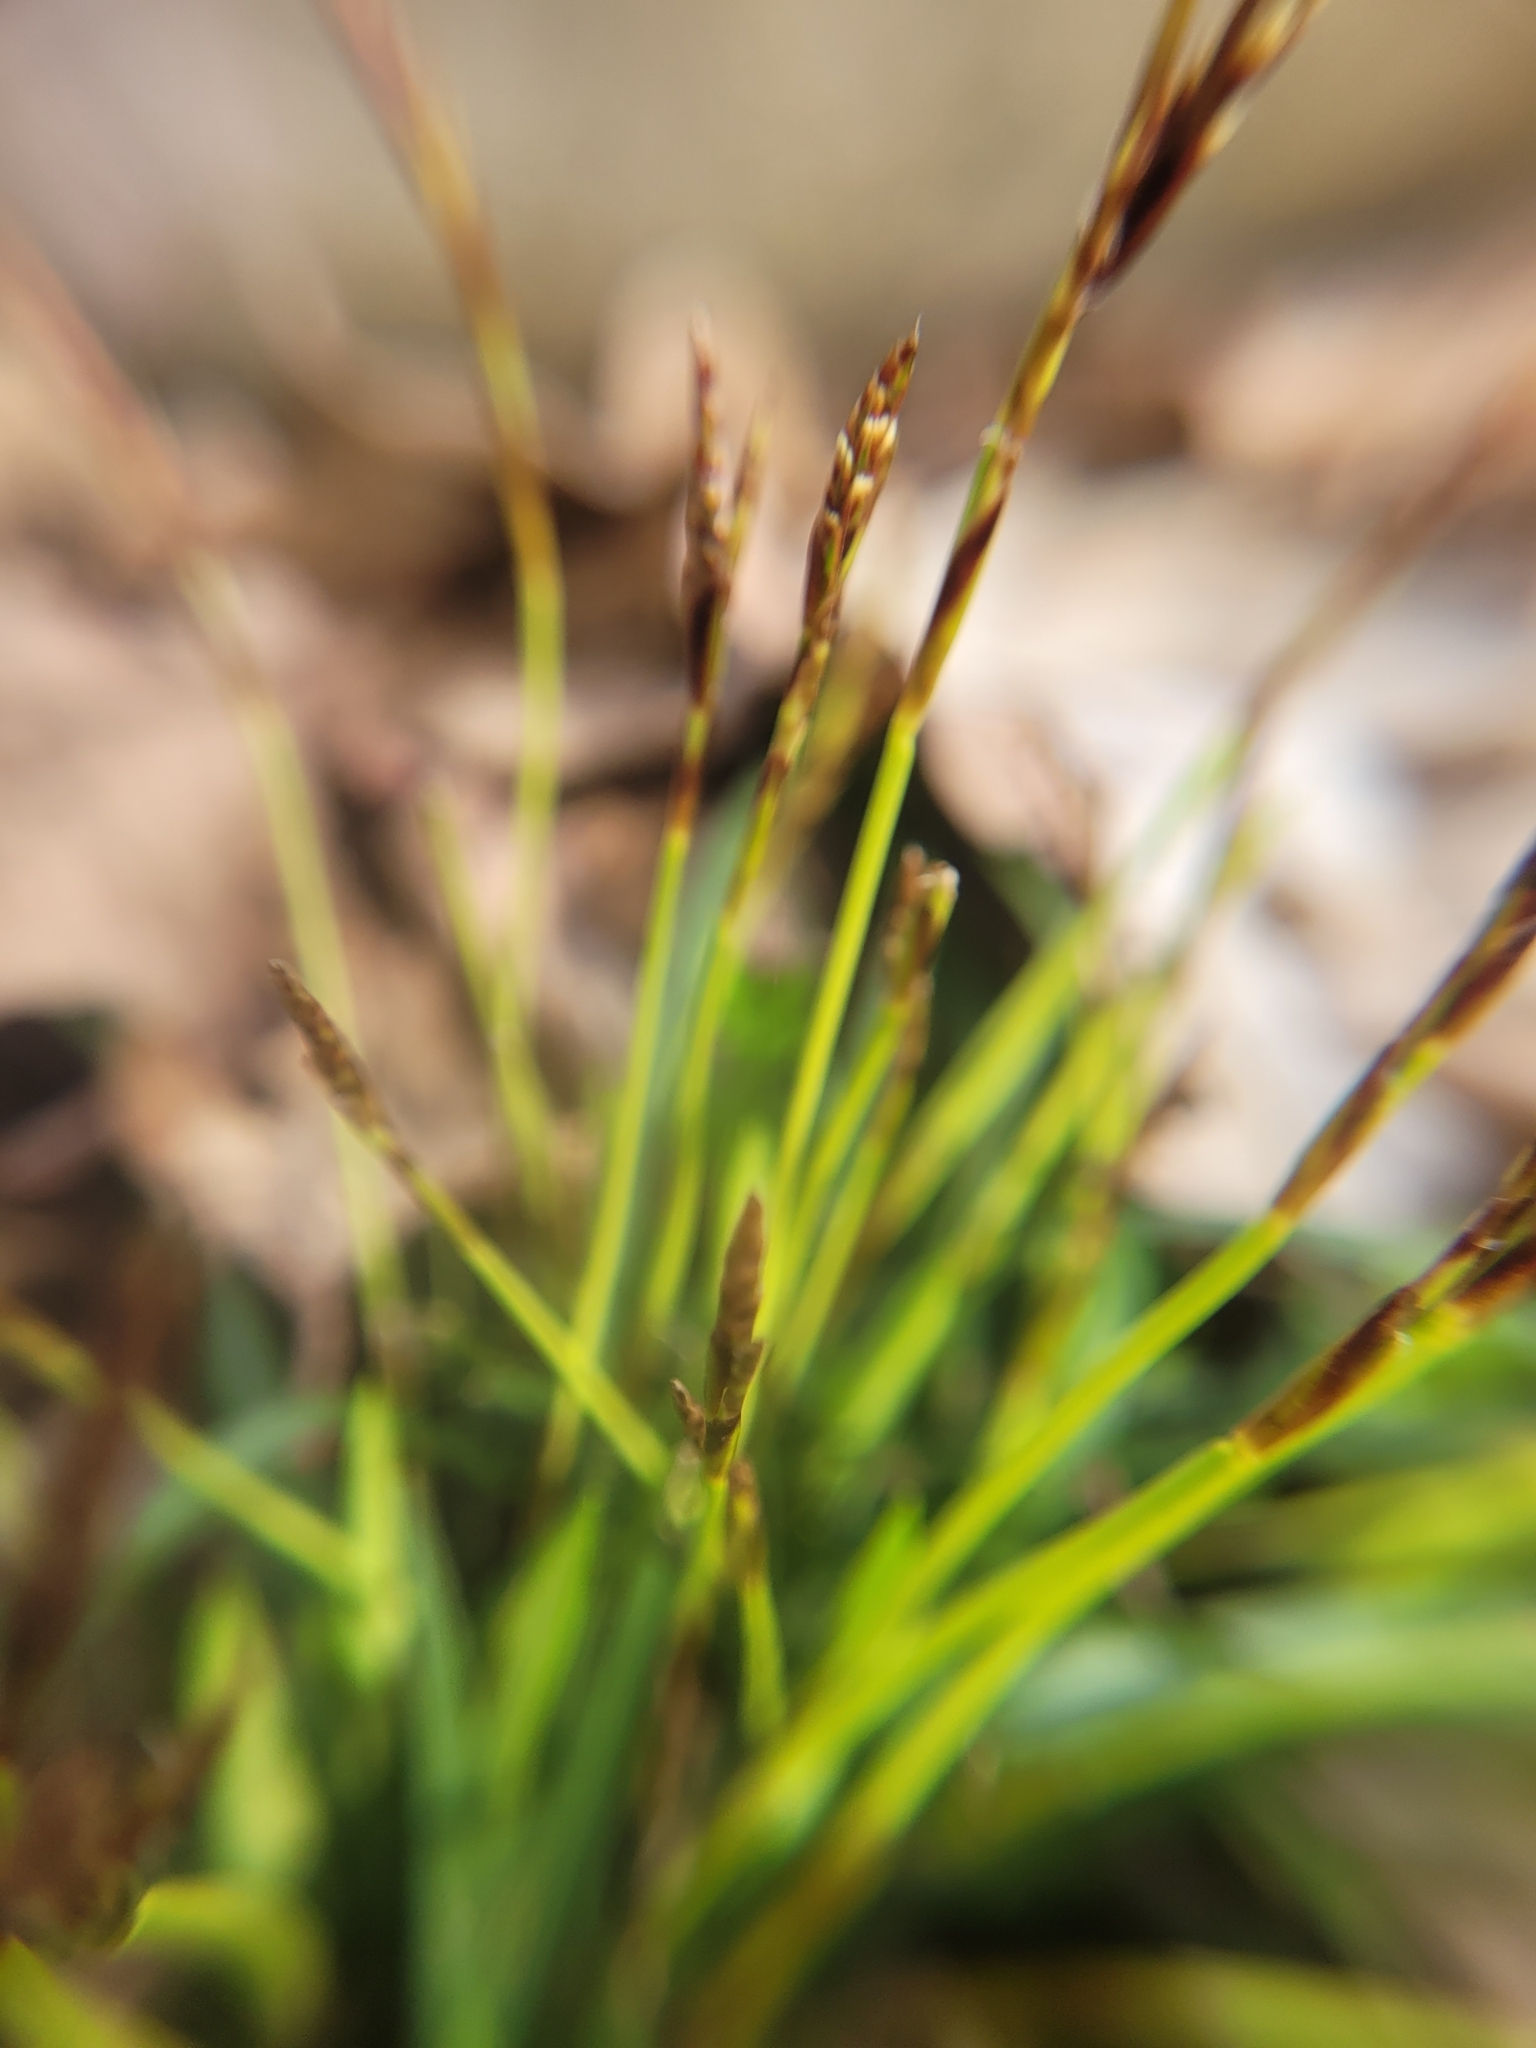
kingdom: Plantae
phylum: Tracheophyta
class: Liliopsida
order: Poales
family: Cyperaceae
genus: Carex
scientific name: Carex digitata
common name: Fingered sedge
